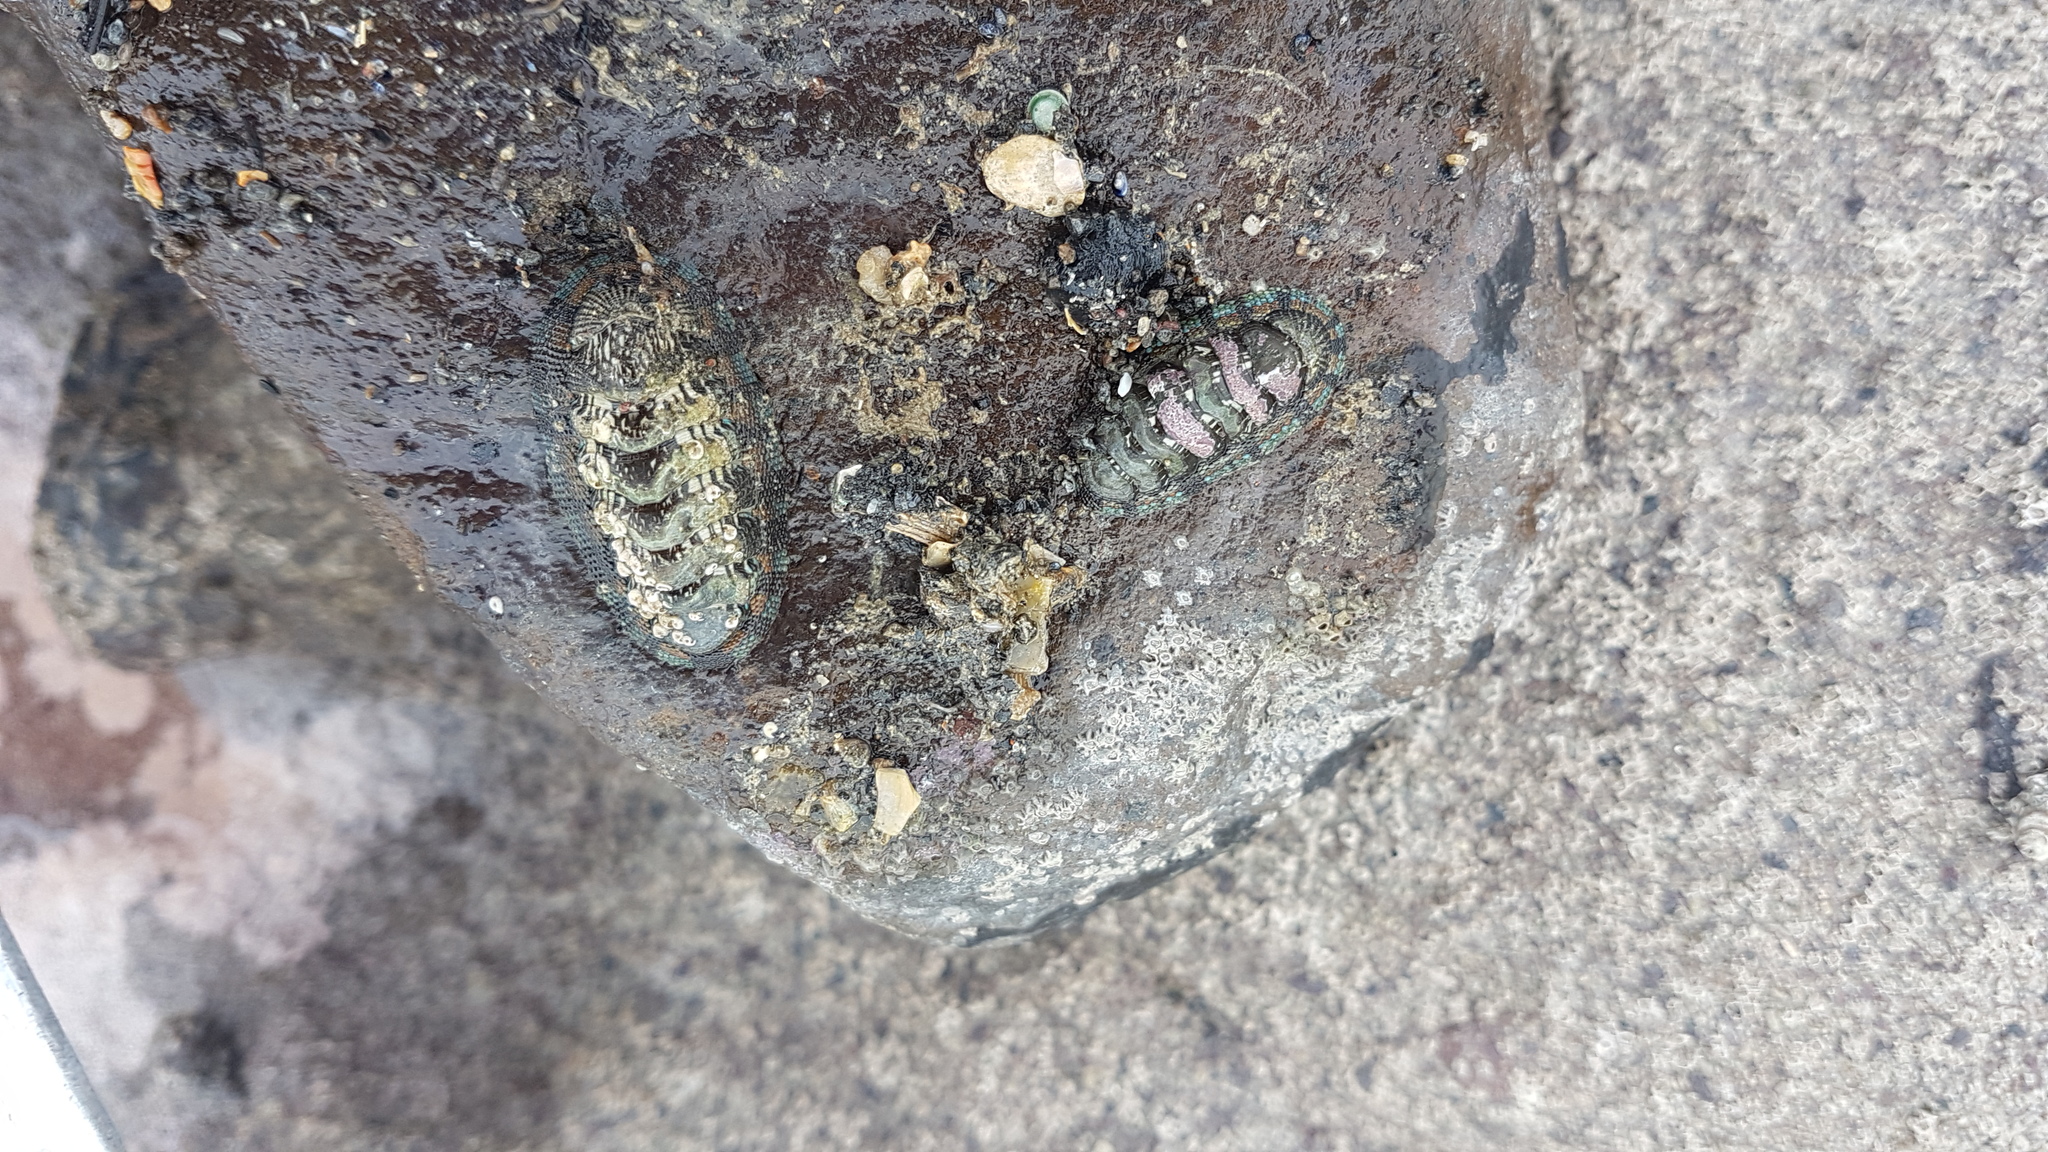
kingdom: Animalia
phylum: Mollusca
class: Polyplacophora
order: Chitonida
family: Chitonidae
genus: Sypharochiton
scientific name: Sypharochiton sinclairi
